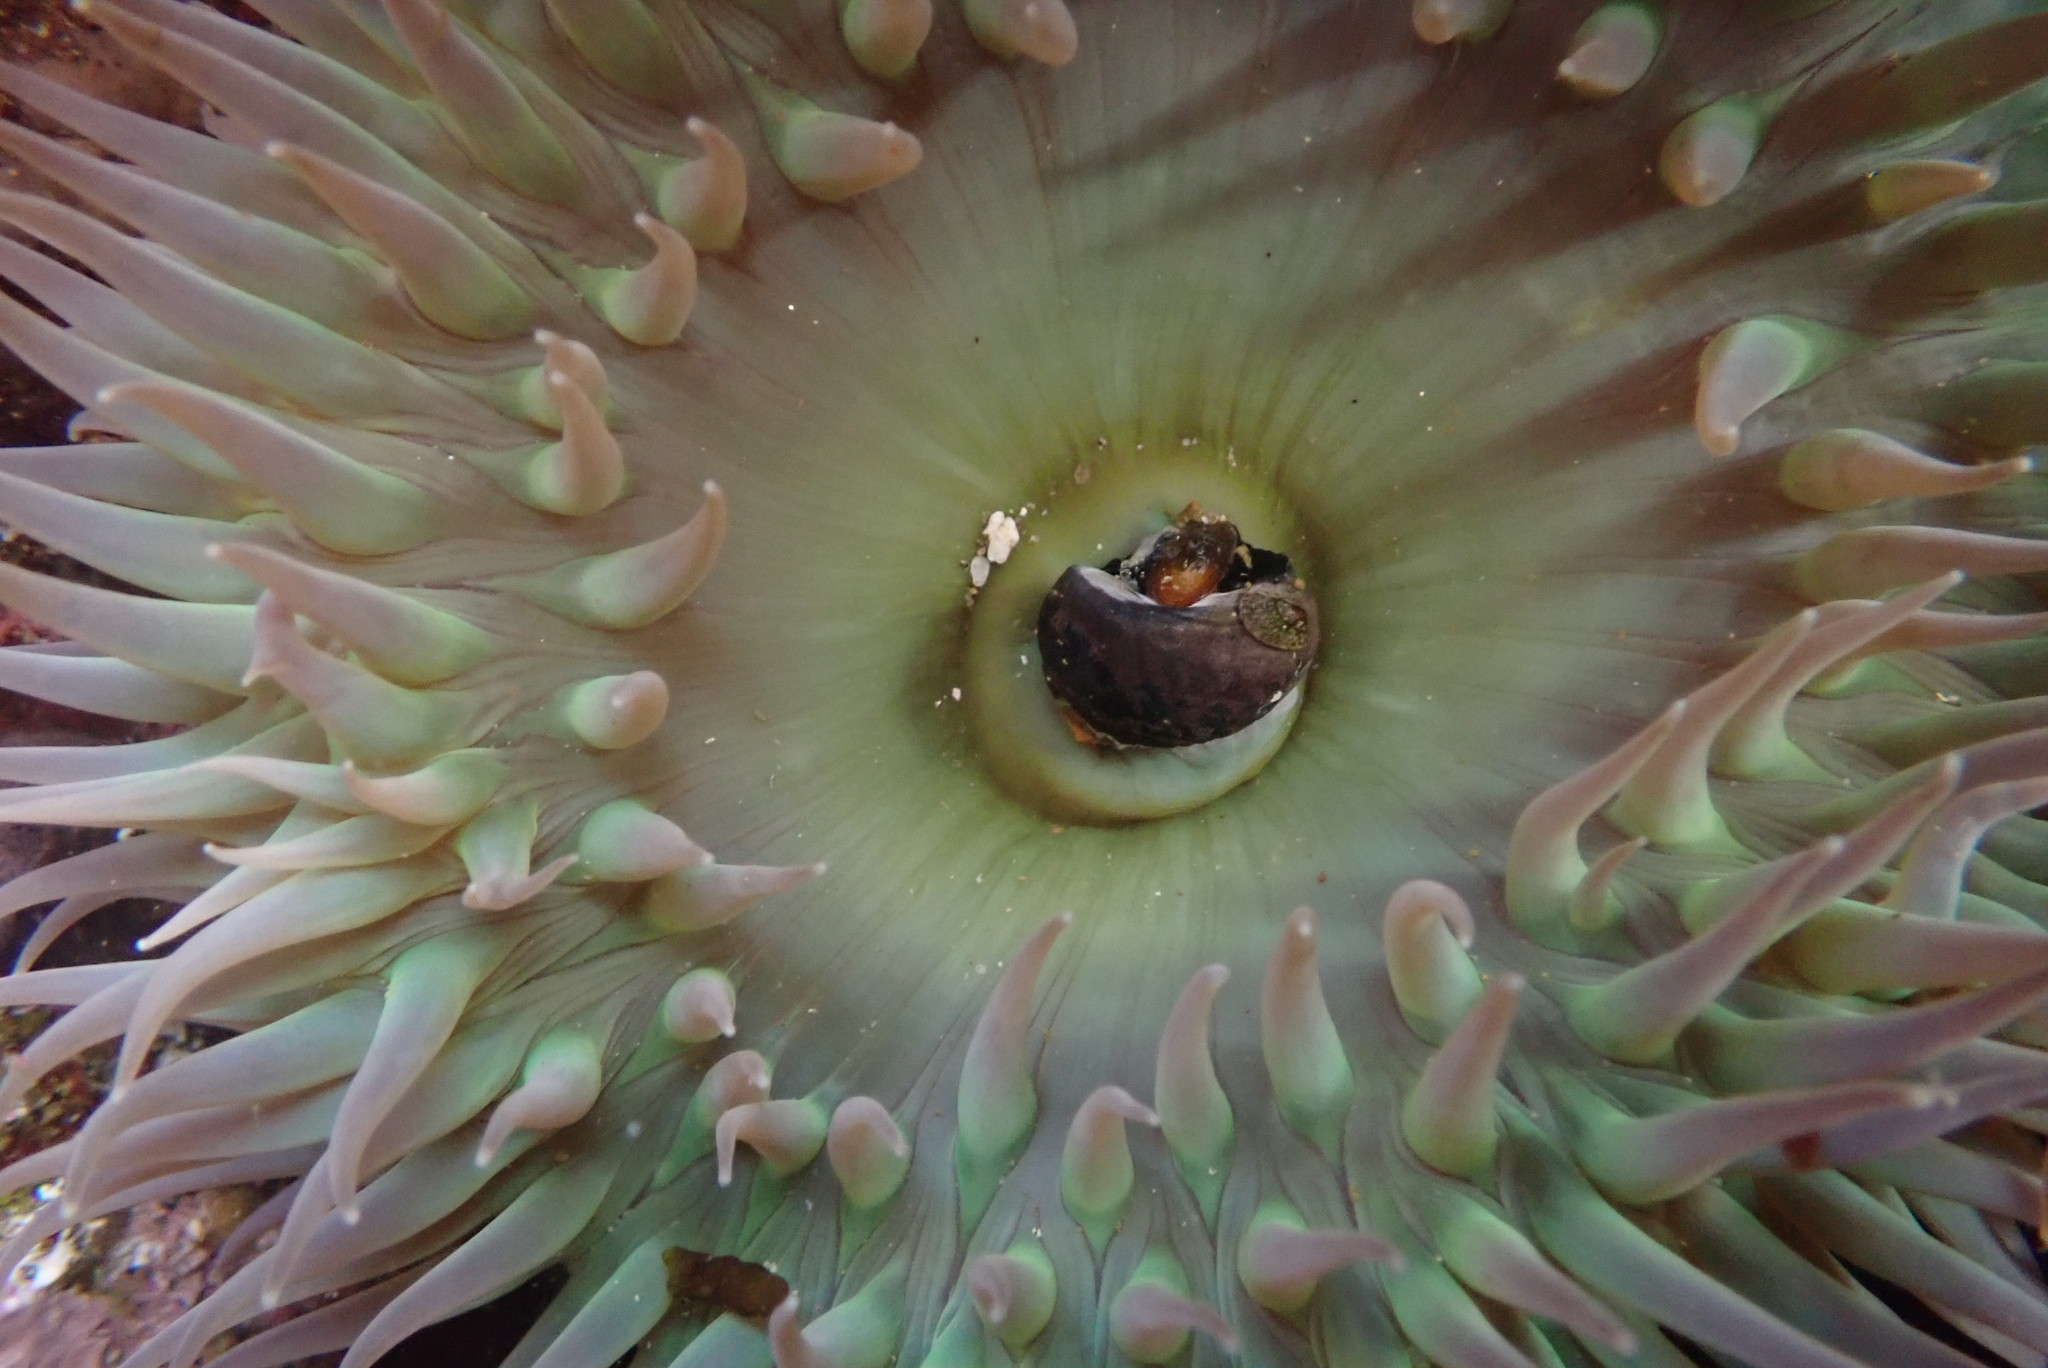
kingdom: Animalia
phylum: Cnidaria
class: Anthozoa
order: Actiniaria
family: Actiniidae
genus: Anthopleura
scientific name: Anthopleura xanthogrammica
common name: Giant green anemone
